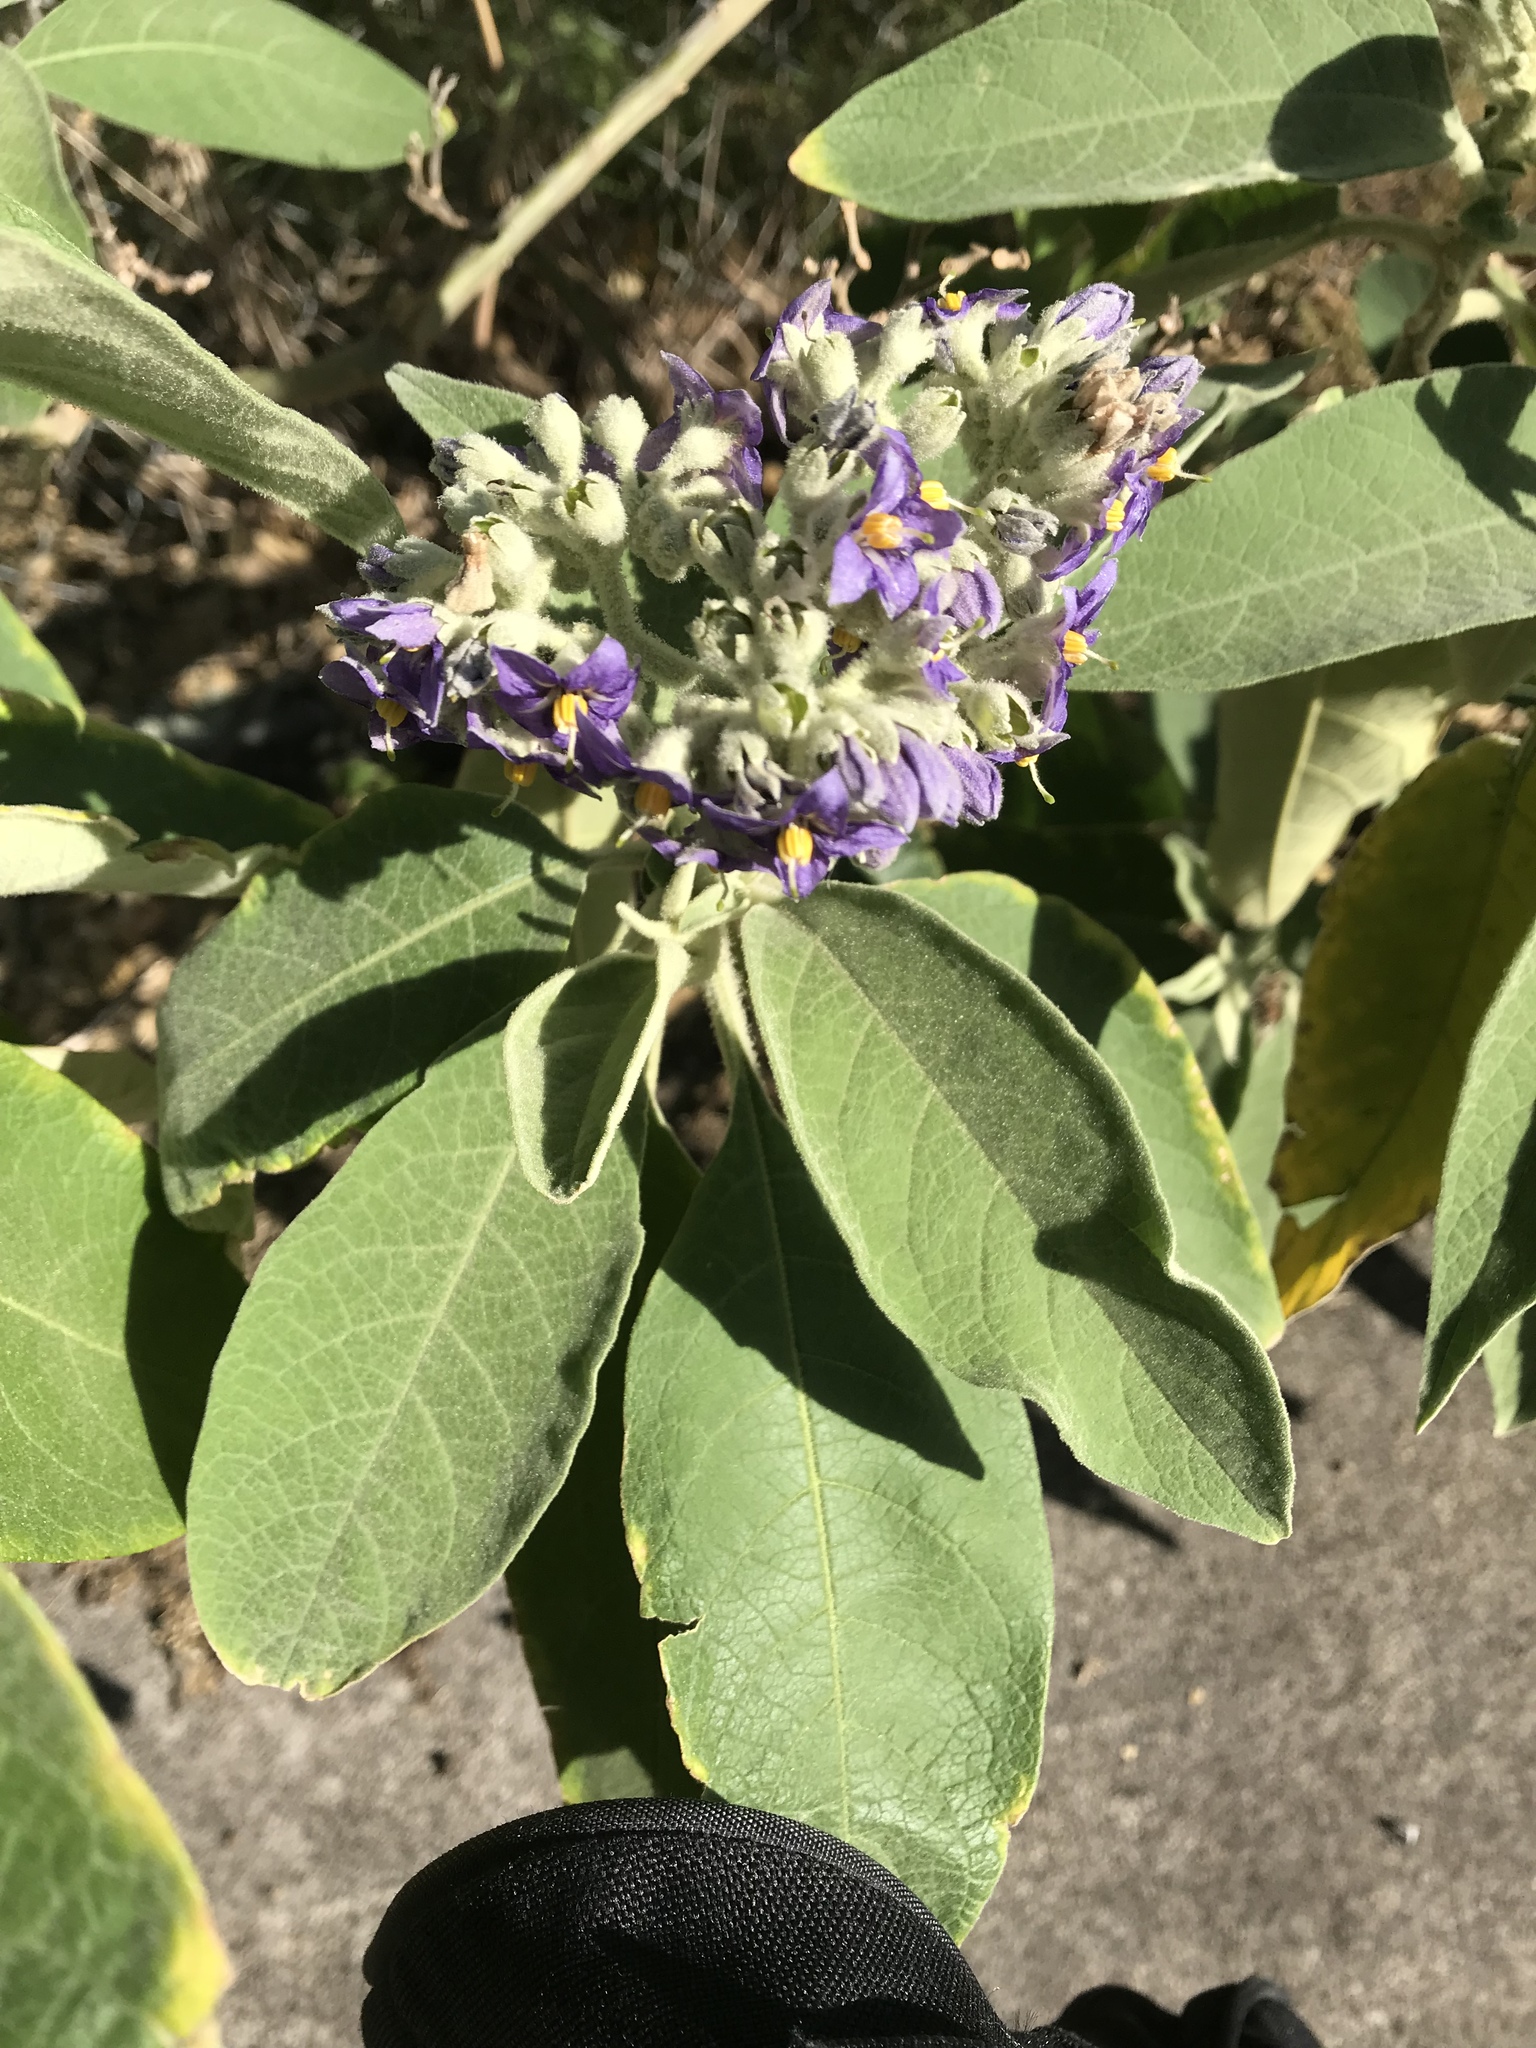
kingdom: Plantae
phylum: Tracheophyta
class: Magnoliopsida
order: Solanales
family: Solanaceae
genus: Solanum
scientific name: Solanum mauritianum
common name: Earleaf nightshade
